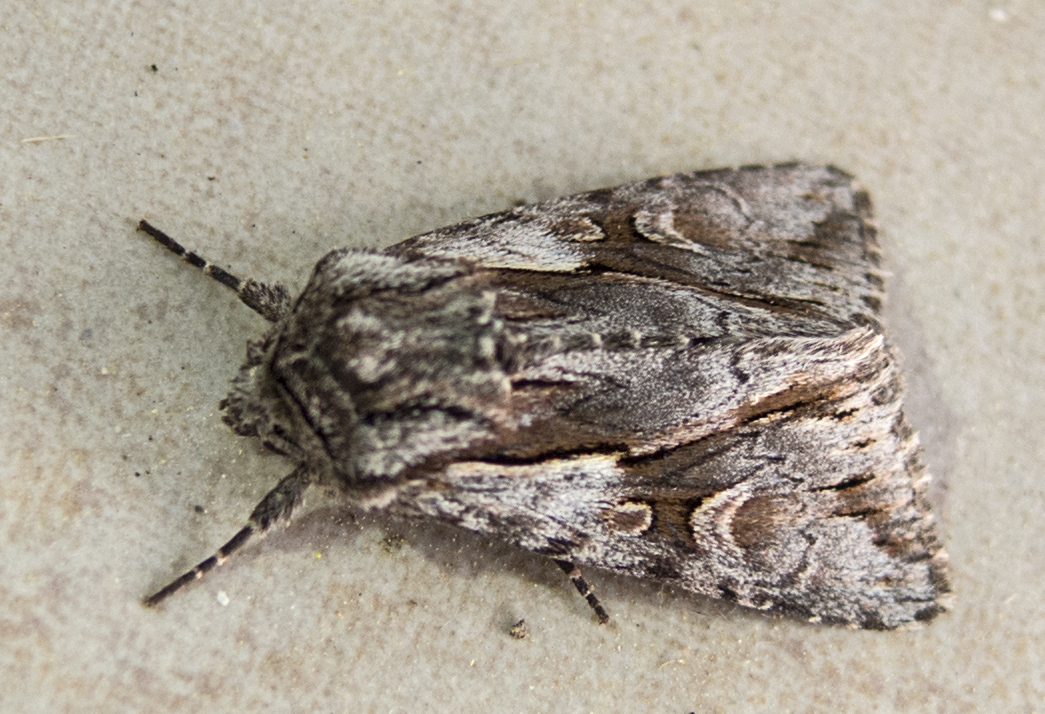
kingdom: Animalia
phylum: Arthropoda
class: Insecta
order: Lepidoptera
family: Noctuidae
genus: Chloantha
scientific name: Chloantha hyperici
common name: Pale-shouldered cloud
